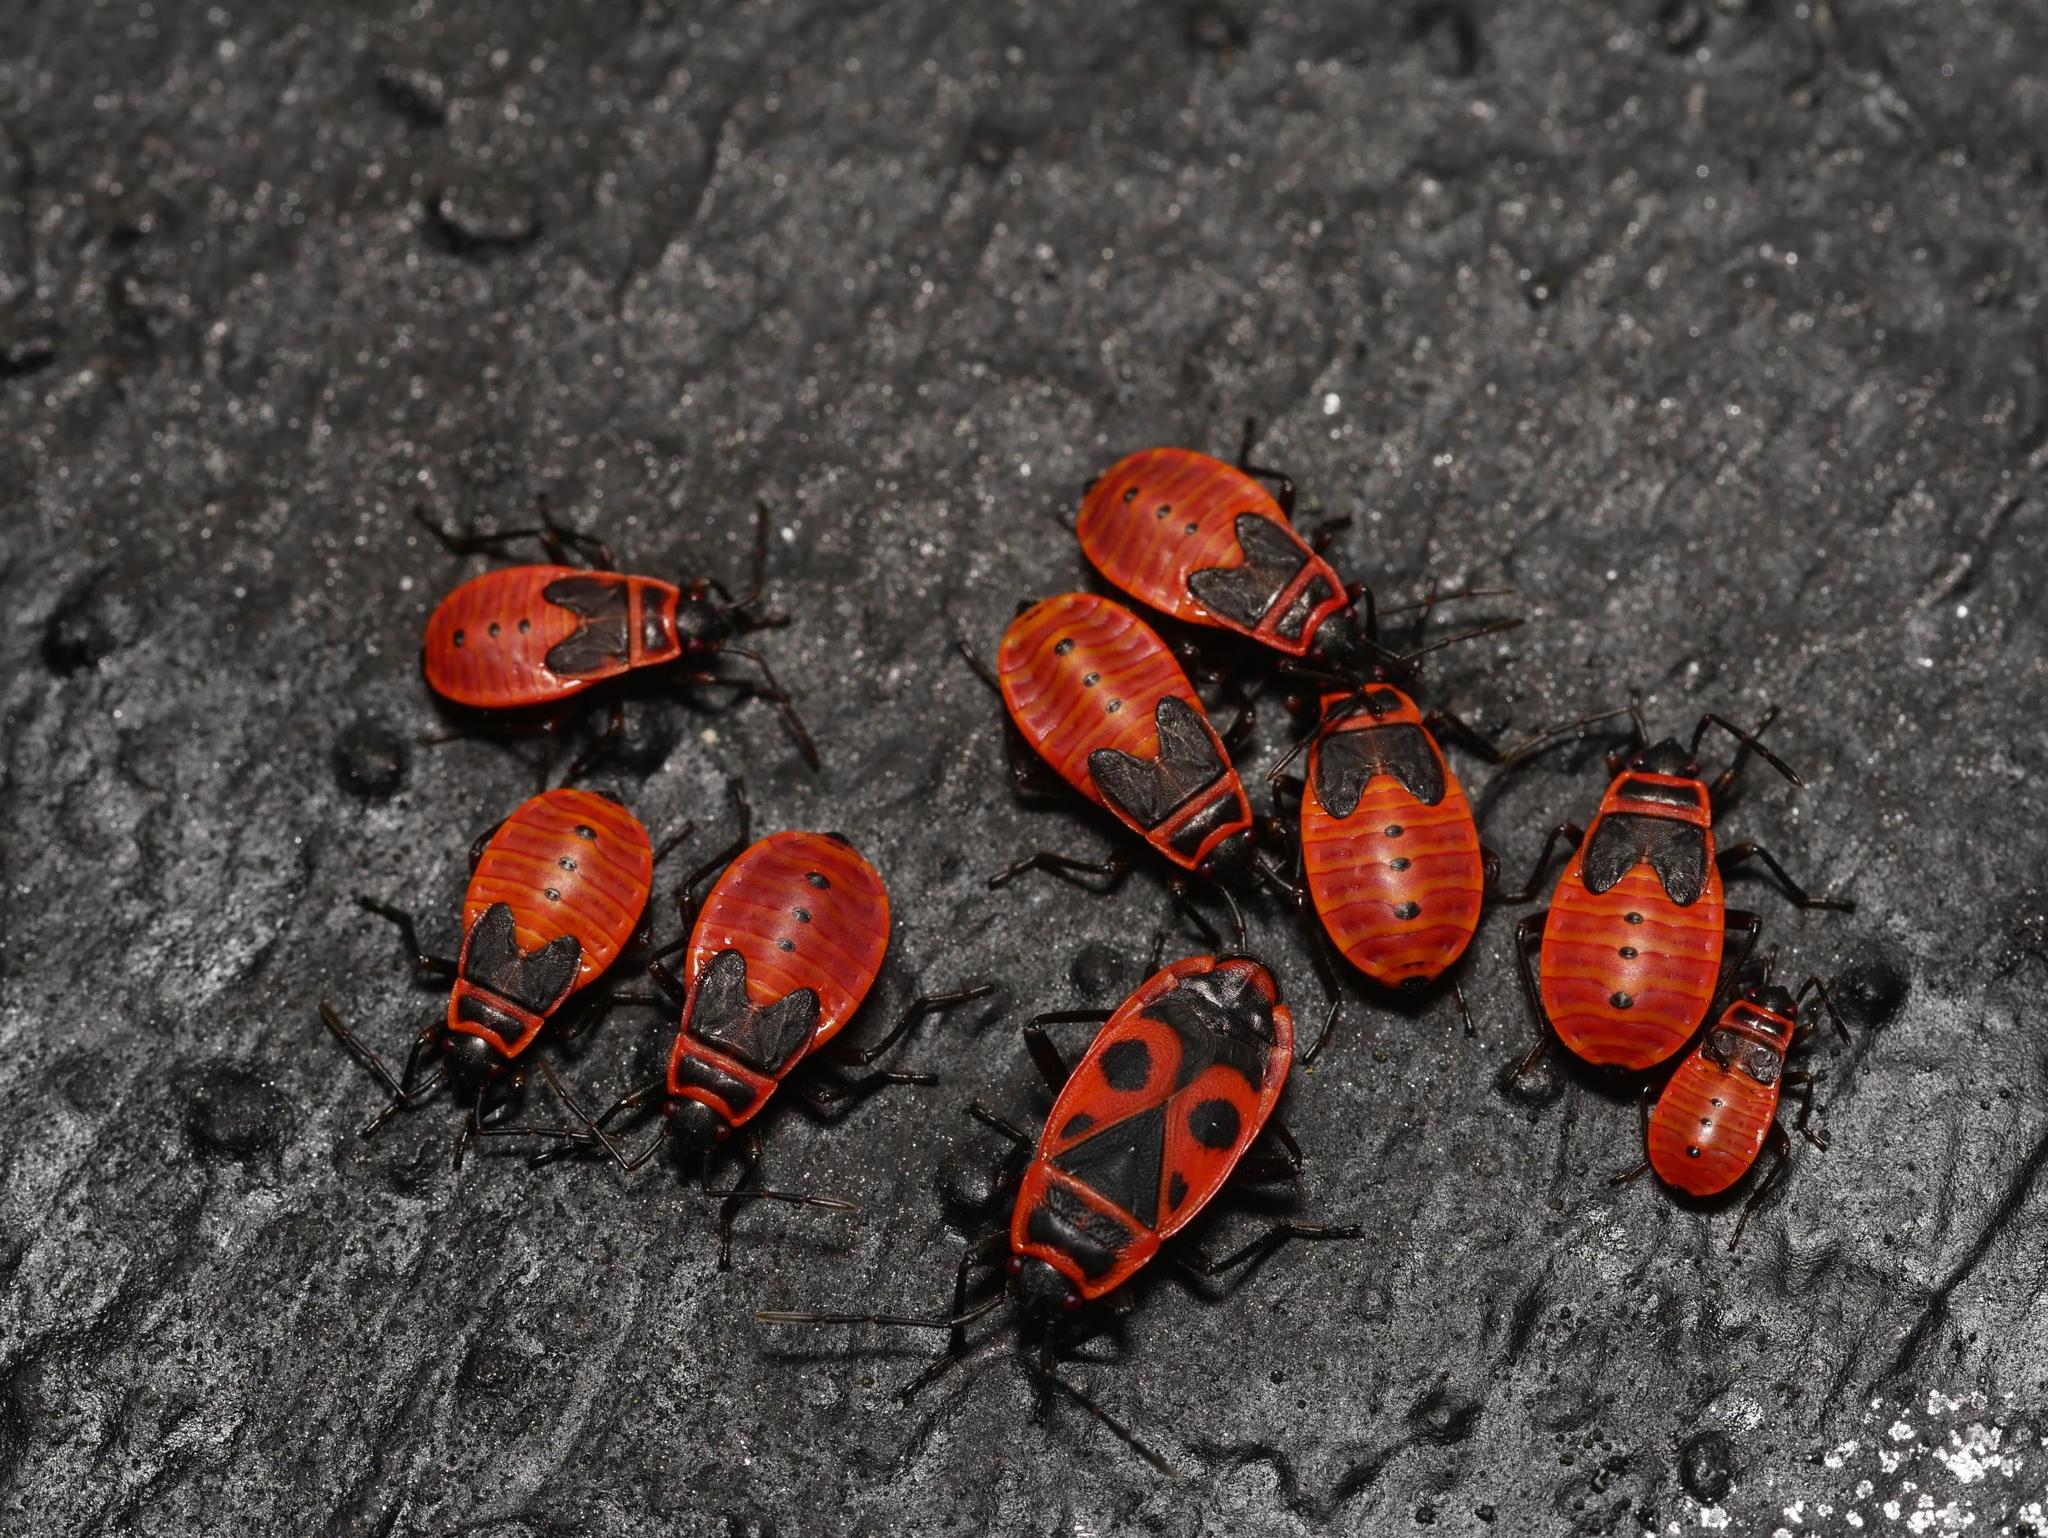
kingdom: Animalia
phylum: Arthropoda
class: Insecta
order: Hemiptera
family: Pyrrhocoridae
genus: Pyrrhocoris
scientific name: Pyrrhocoris apterus
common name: Firebug
